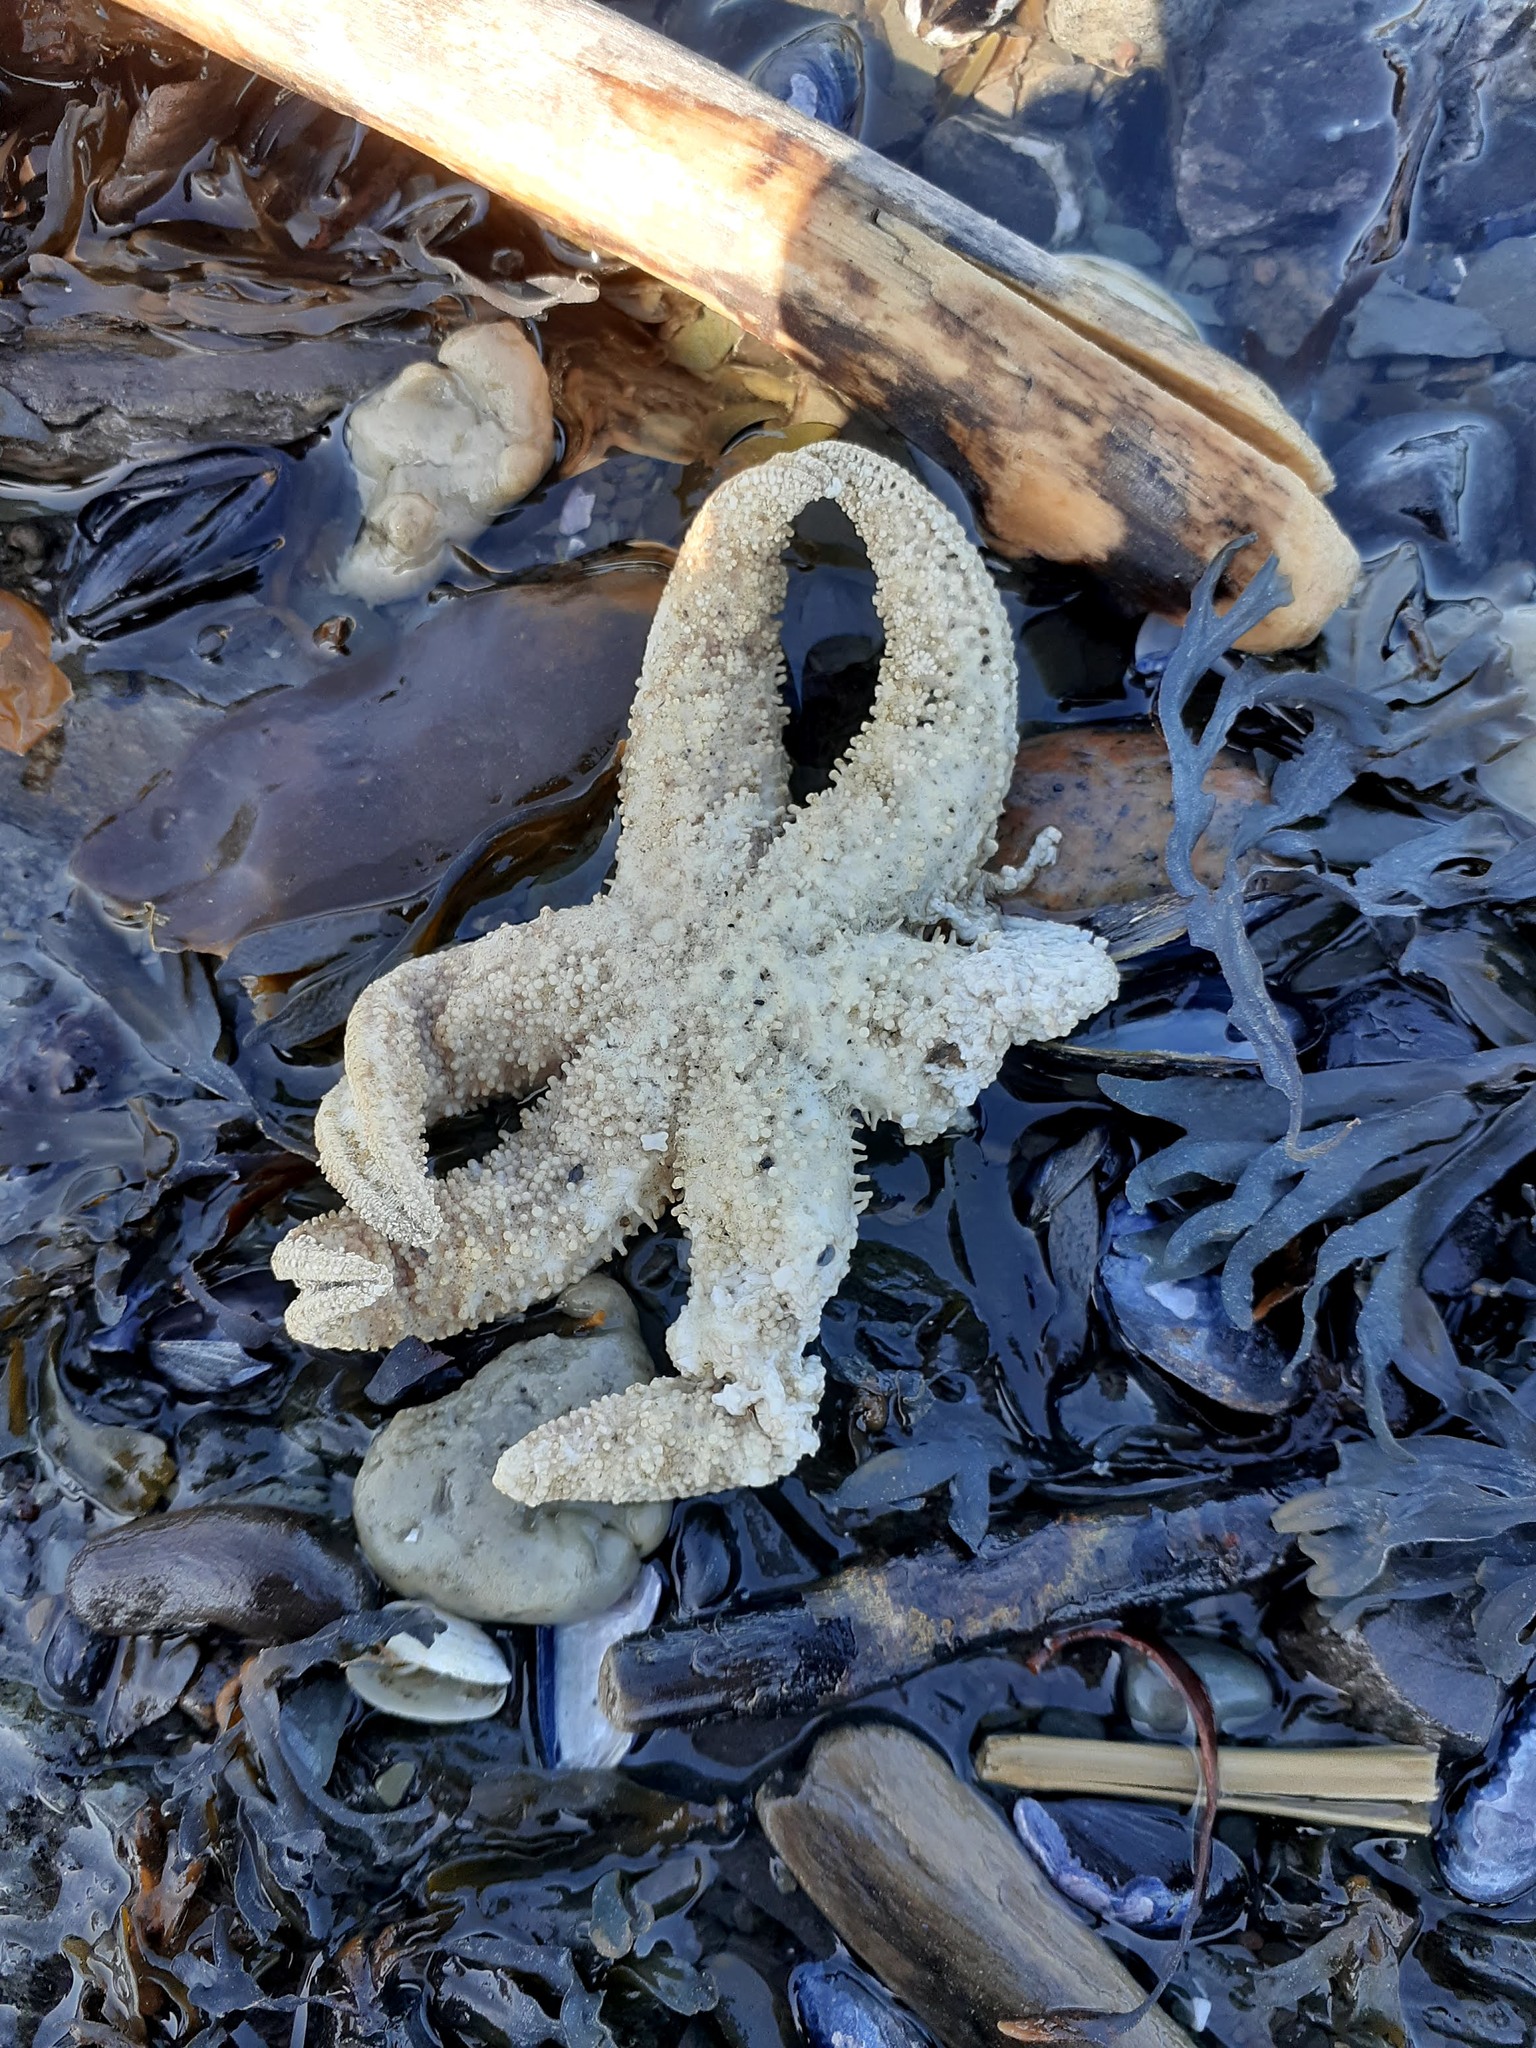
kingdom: Animalia
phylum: Echinodermata
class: Asteroidea
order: Forcipulatida
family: Asteriidae
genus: Leptasterias
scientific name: Leptasterias polaris
